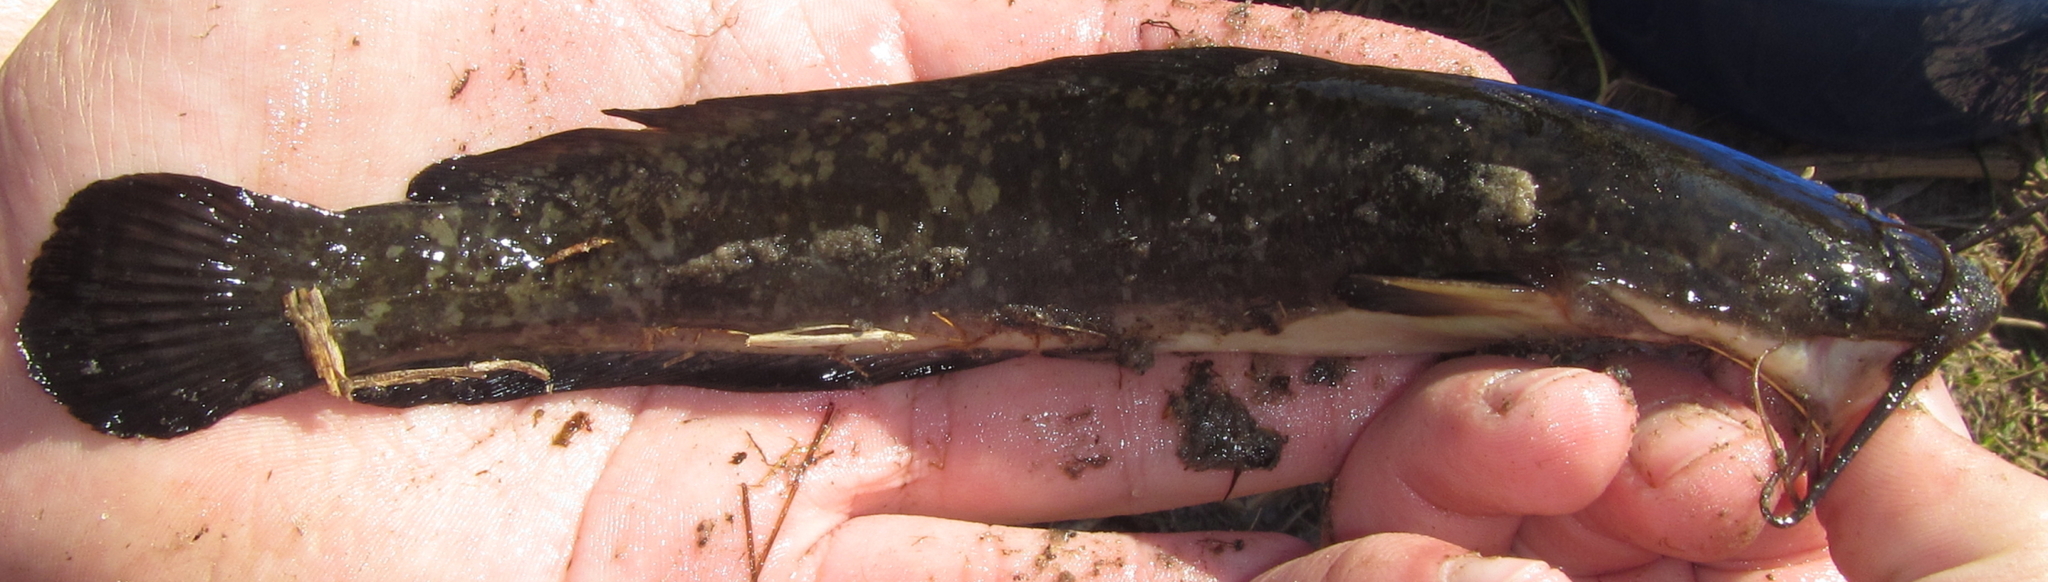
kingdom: Animalia
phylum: Chordata
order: Siluriformes
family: Clariidae
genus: Clarias
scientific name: Clarias ngamensis
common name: Blunt-toothed african catfish
